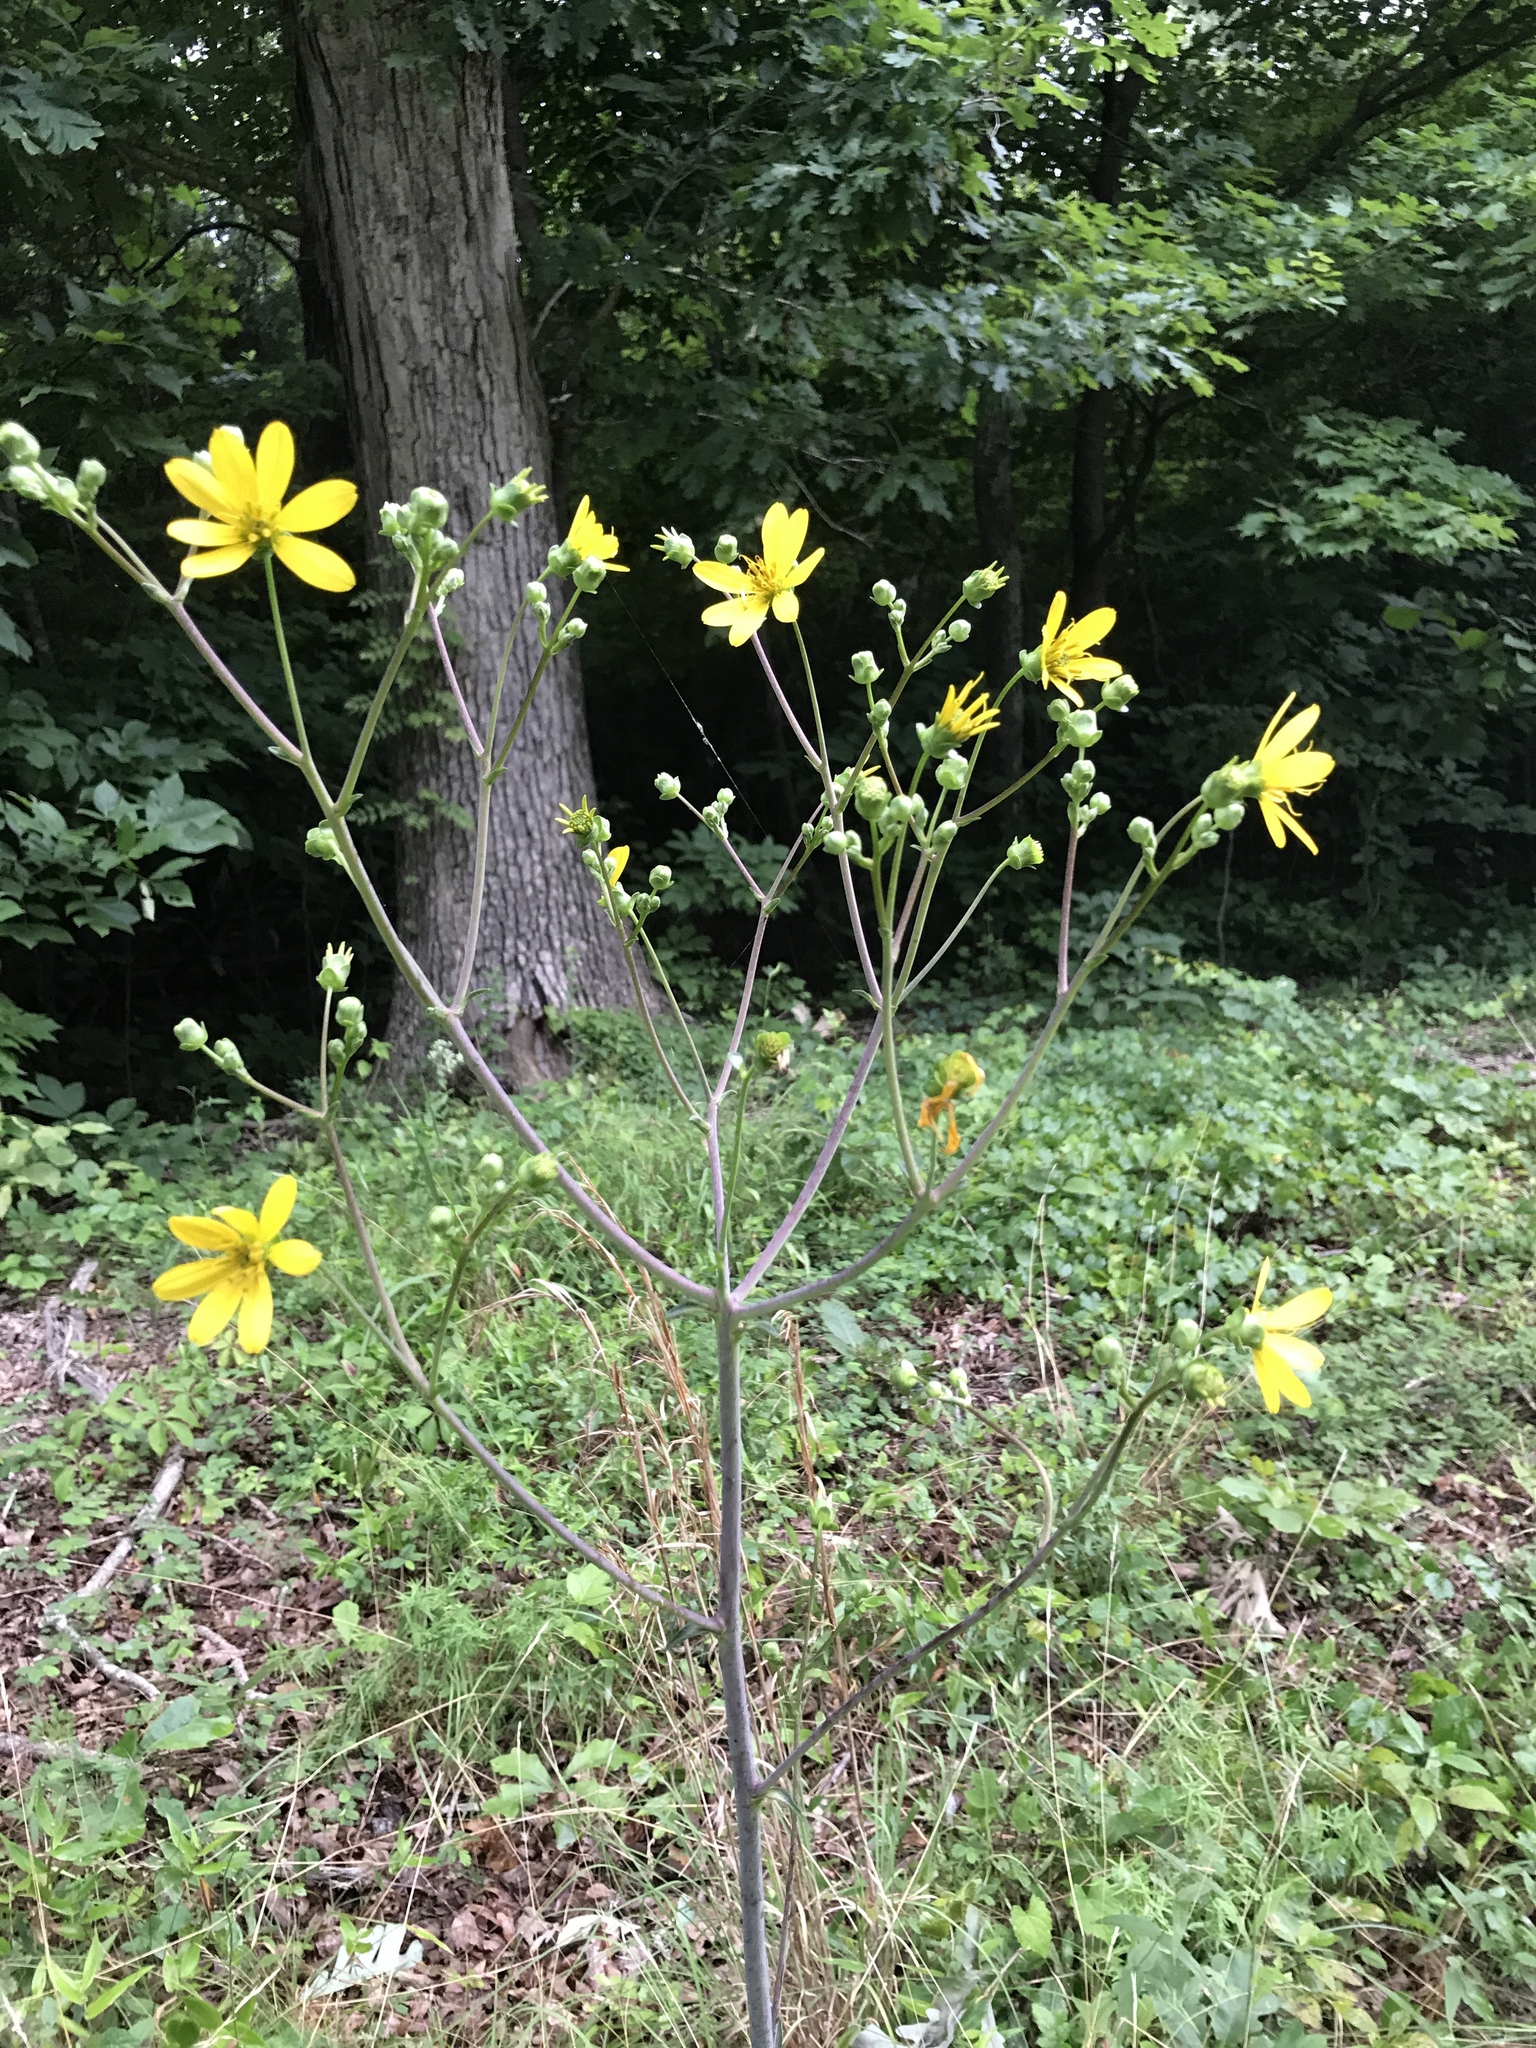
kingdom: Plantae
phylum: Tracheophyta
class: Magnoliopsida
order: Asterales
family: Asteraceae
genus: Silphium
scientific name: Silphium compositum
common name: Lesser basal-leaf rosinweed
